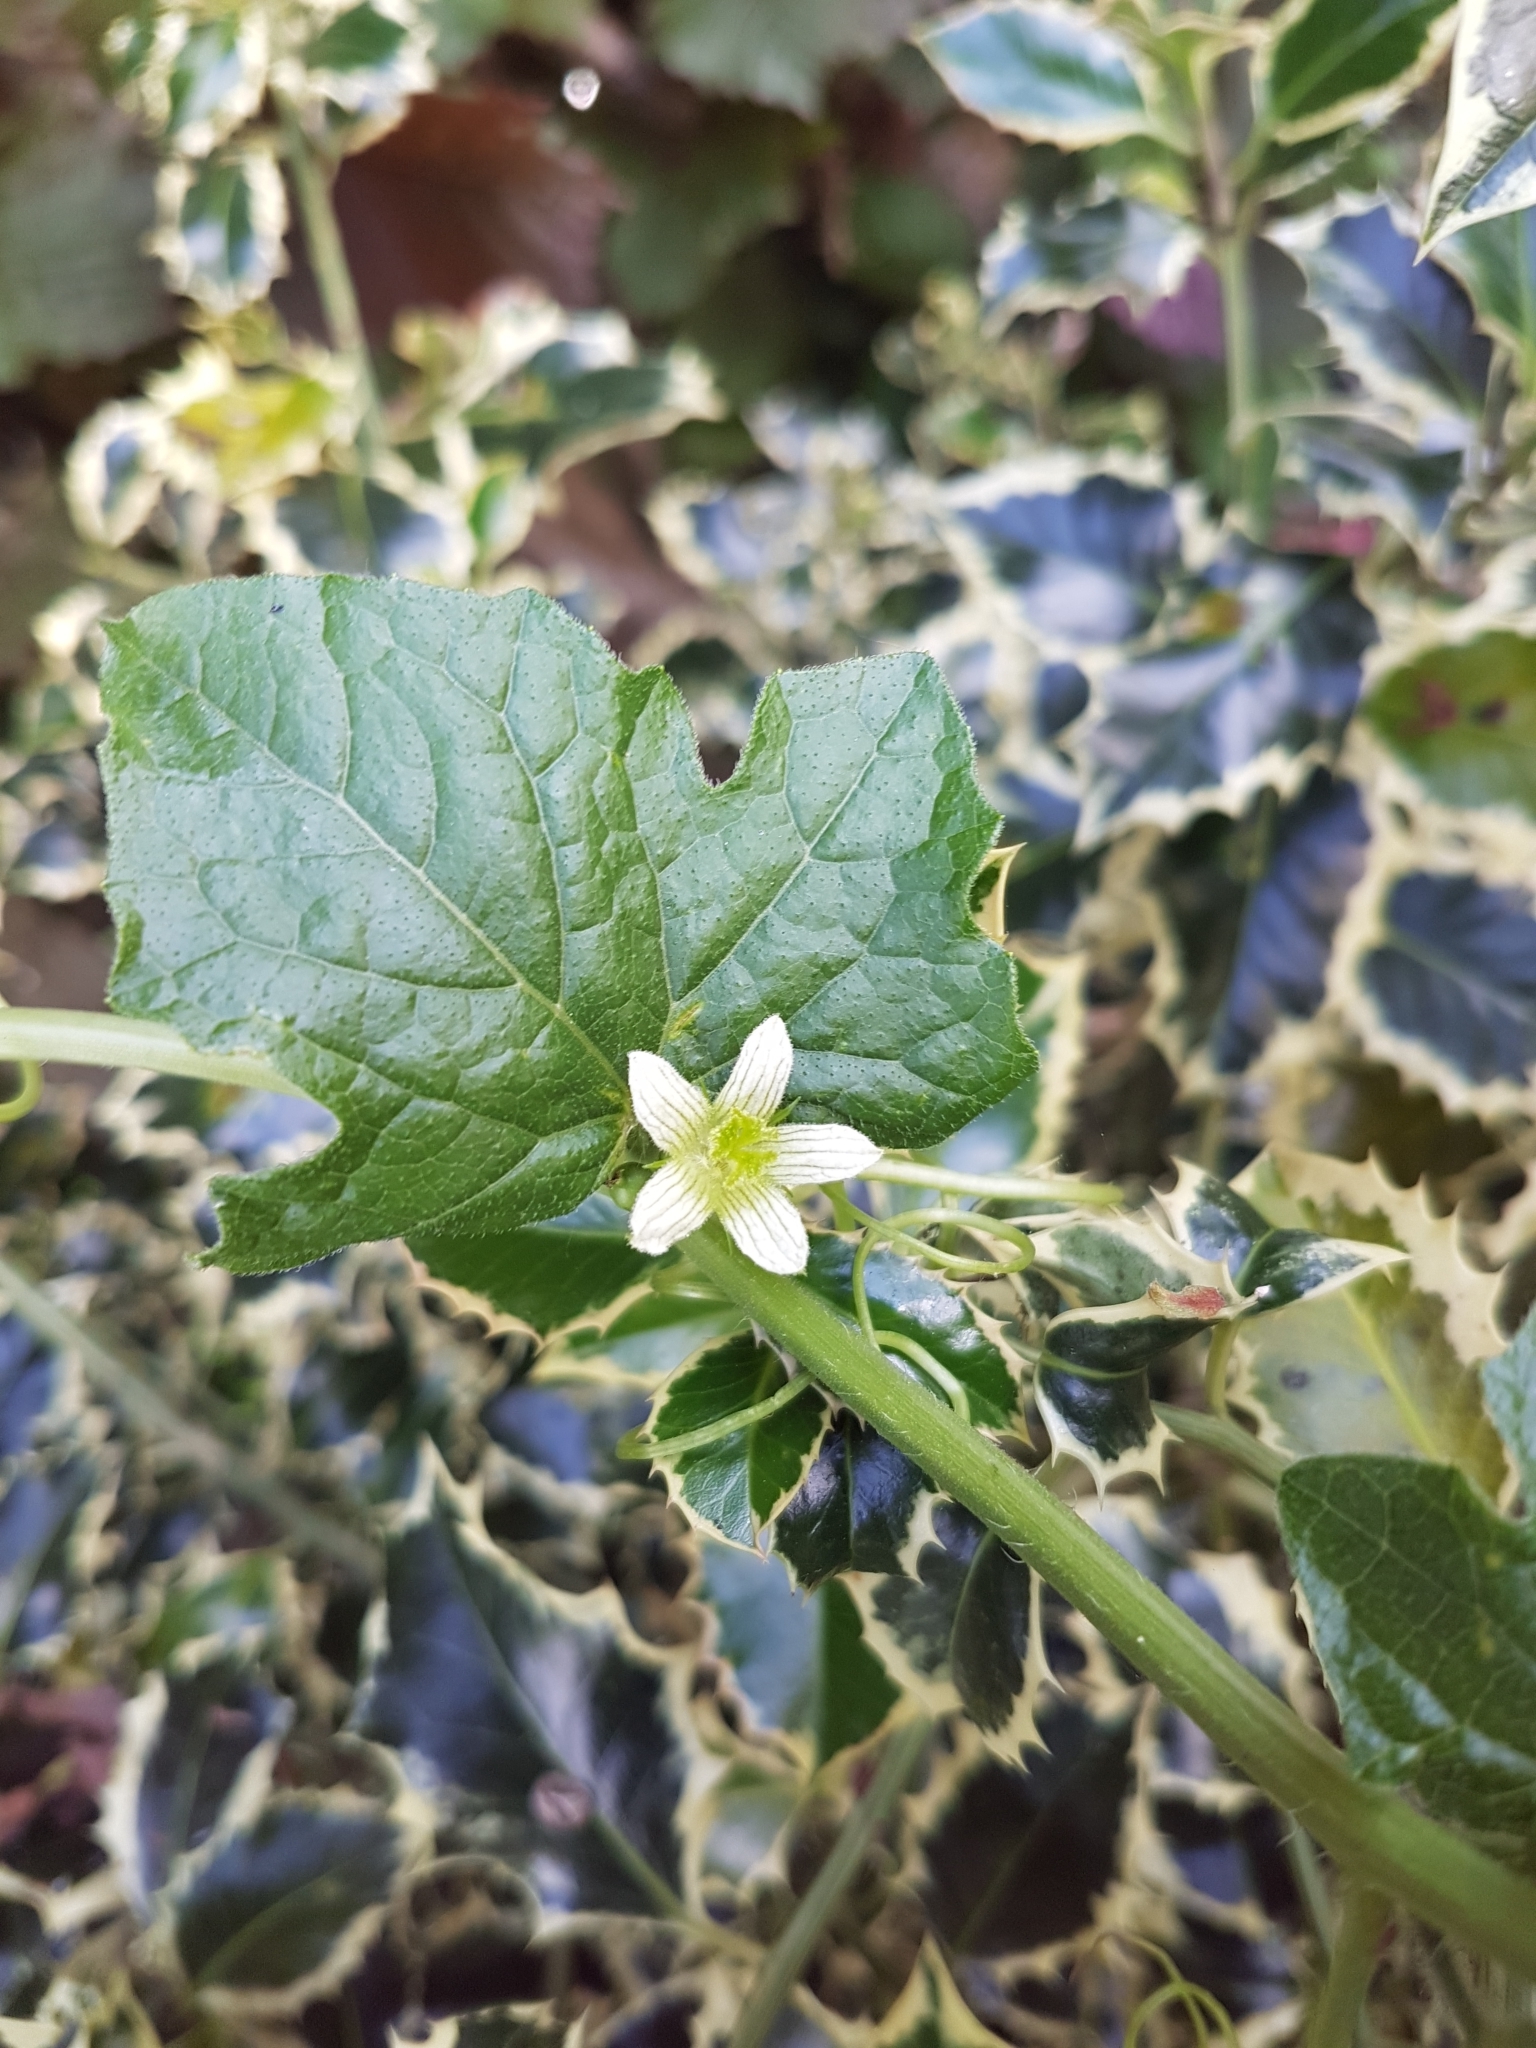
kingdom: Plantae
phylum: Tracheophyta
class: Magnoliopsida
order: Cucurbitales
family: Cucurbitaceae
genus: Bryonia
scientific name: Bryonia dioica
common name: White bryony
